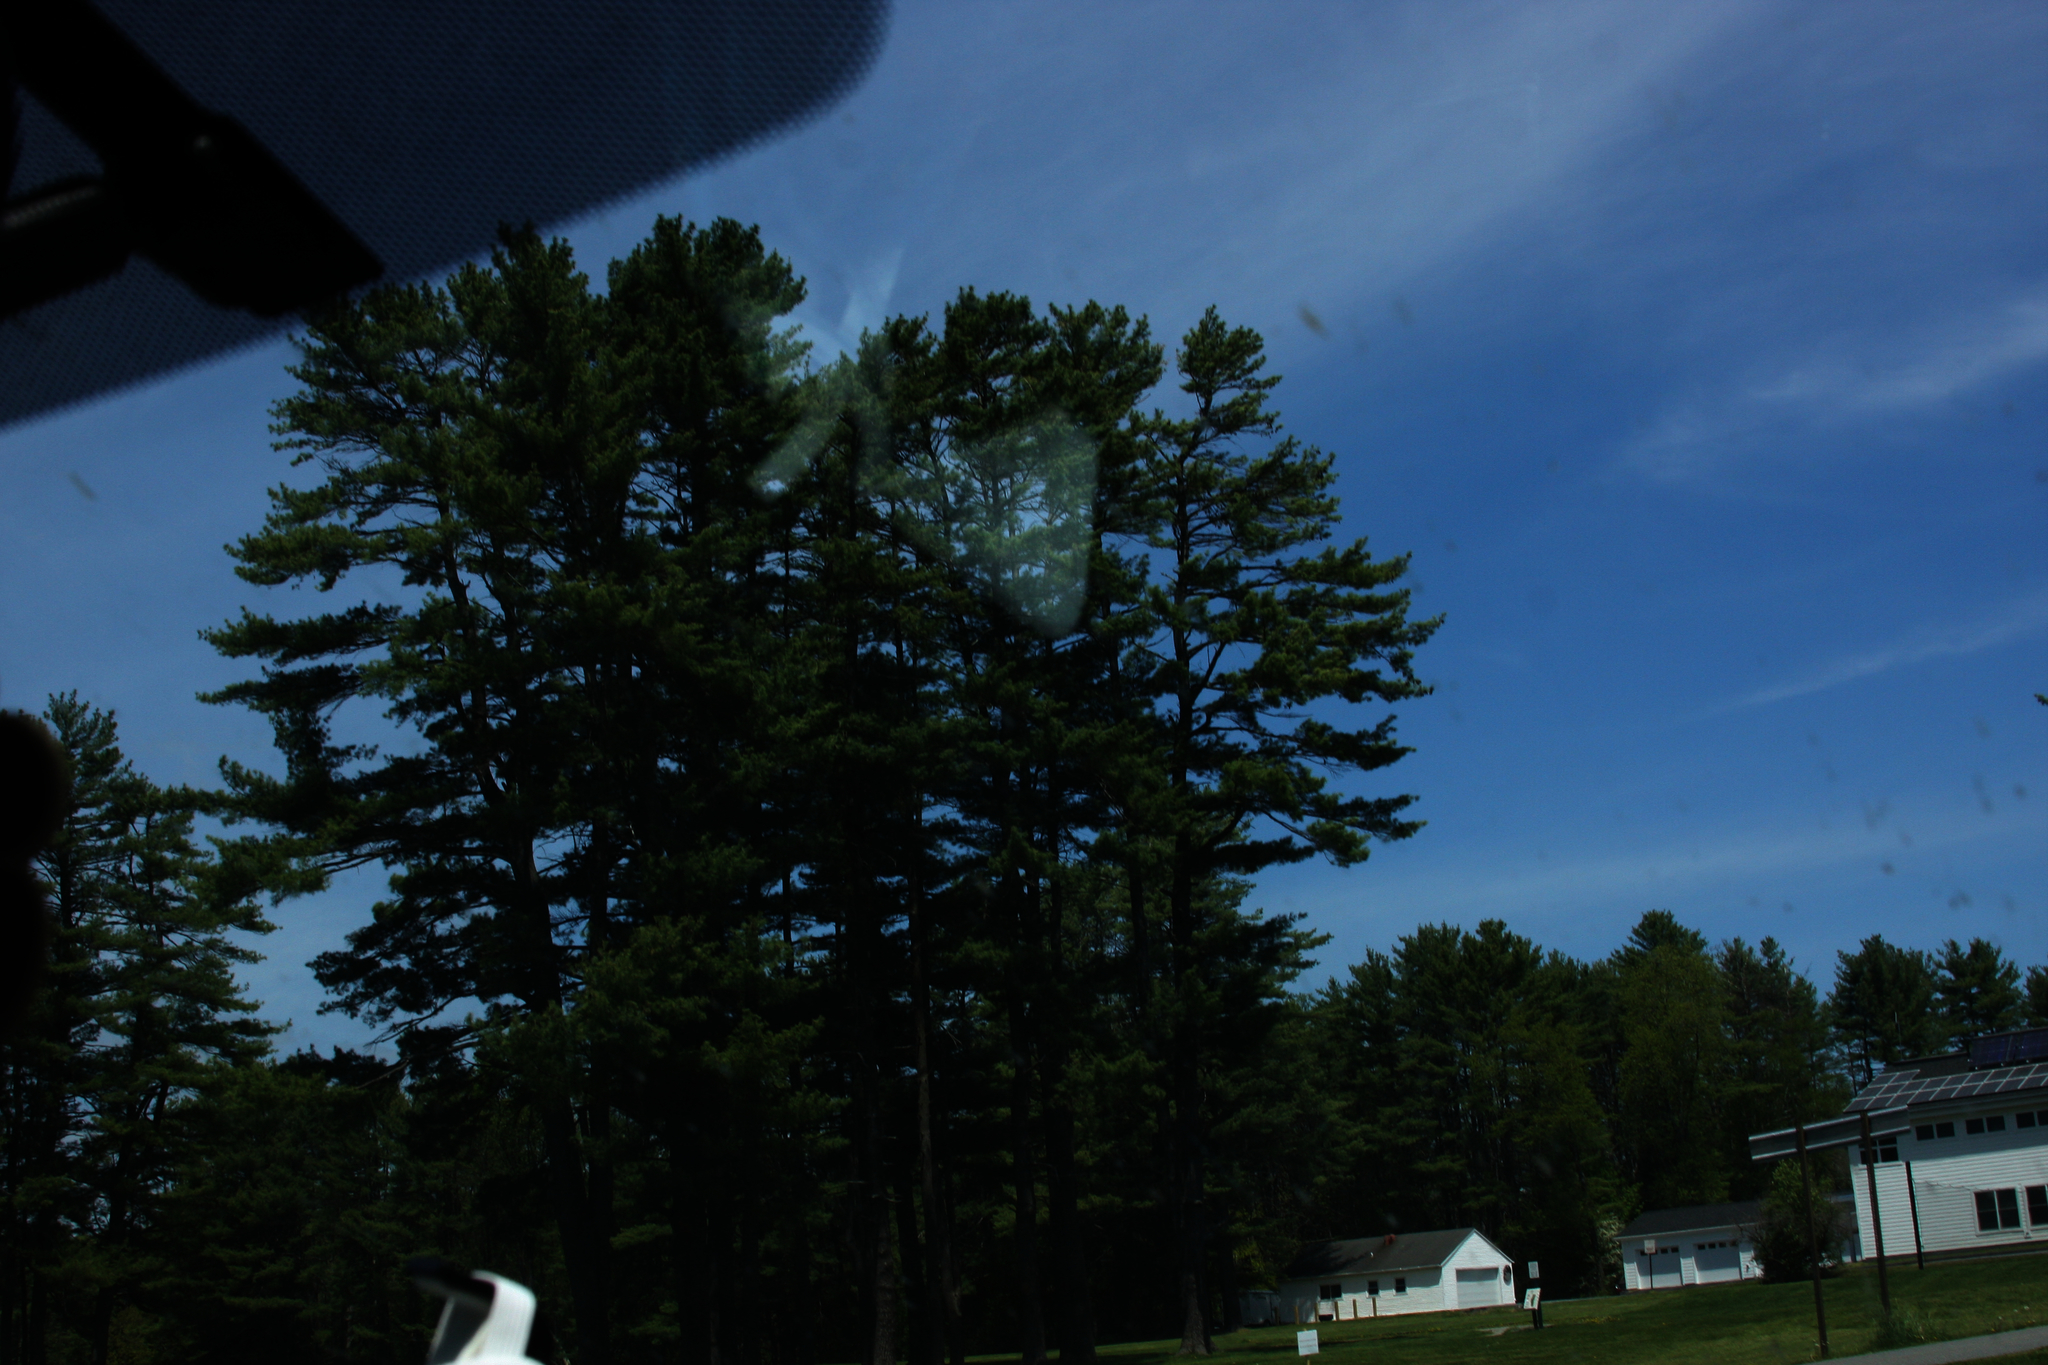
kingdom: Plantae
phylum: Tracheophyta
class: Pinopsida
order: Pinales
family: Pinaceae
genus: Pinus
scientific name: Pinus strobus
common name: Weymouth pine
